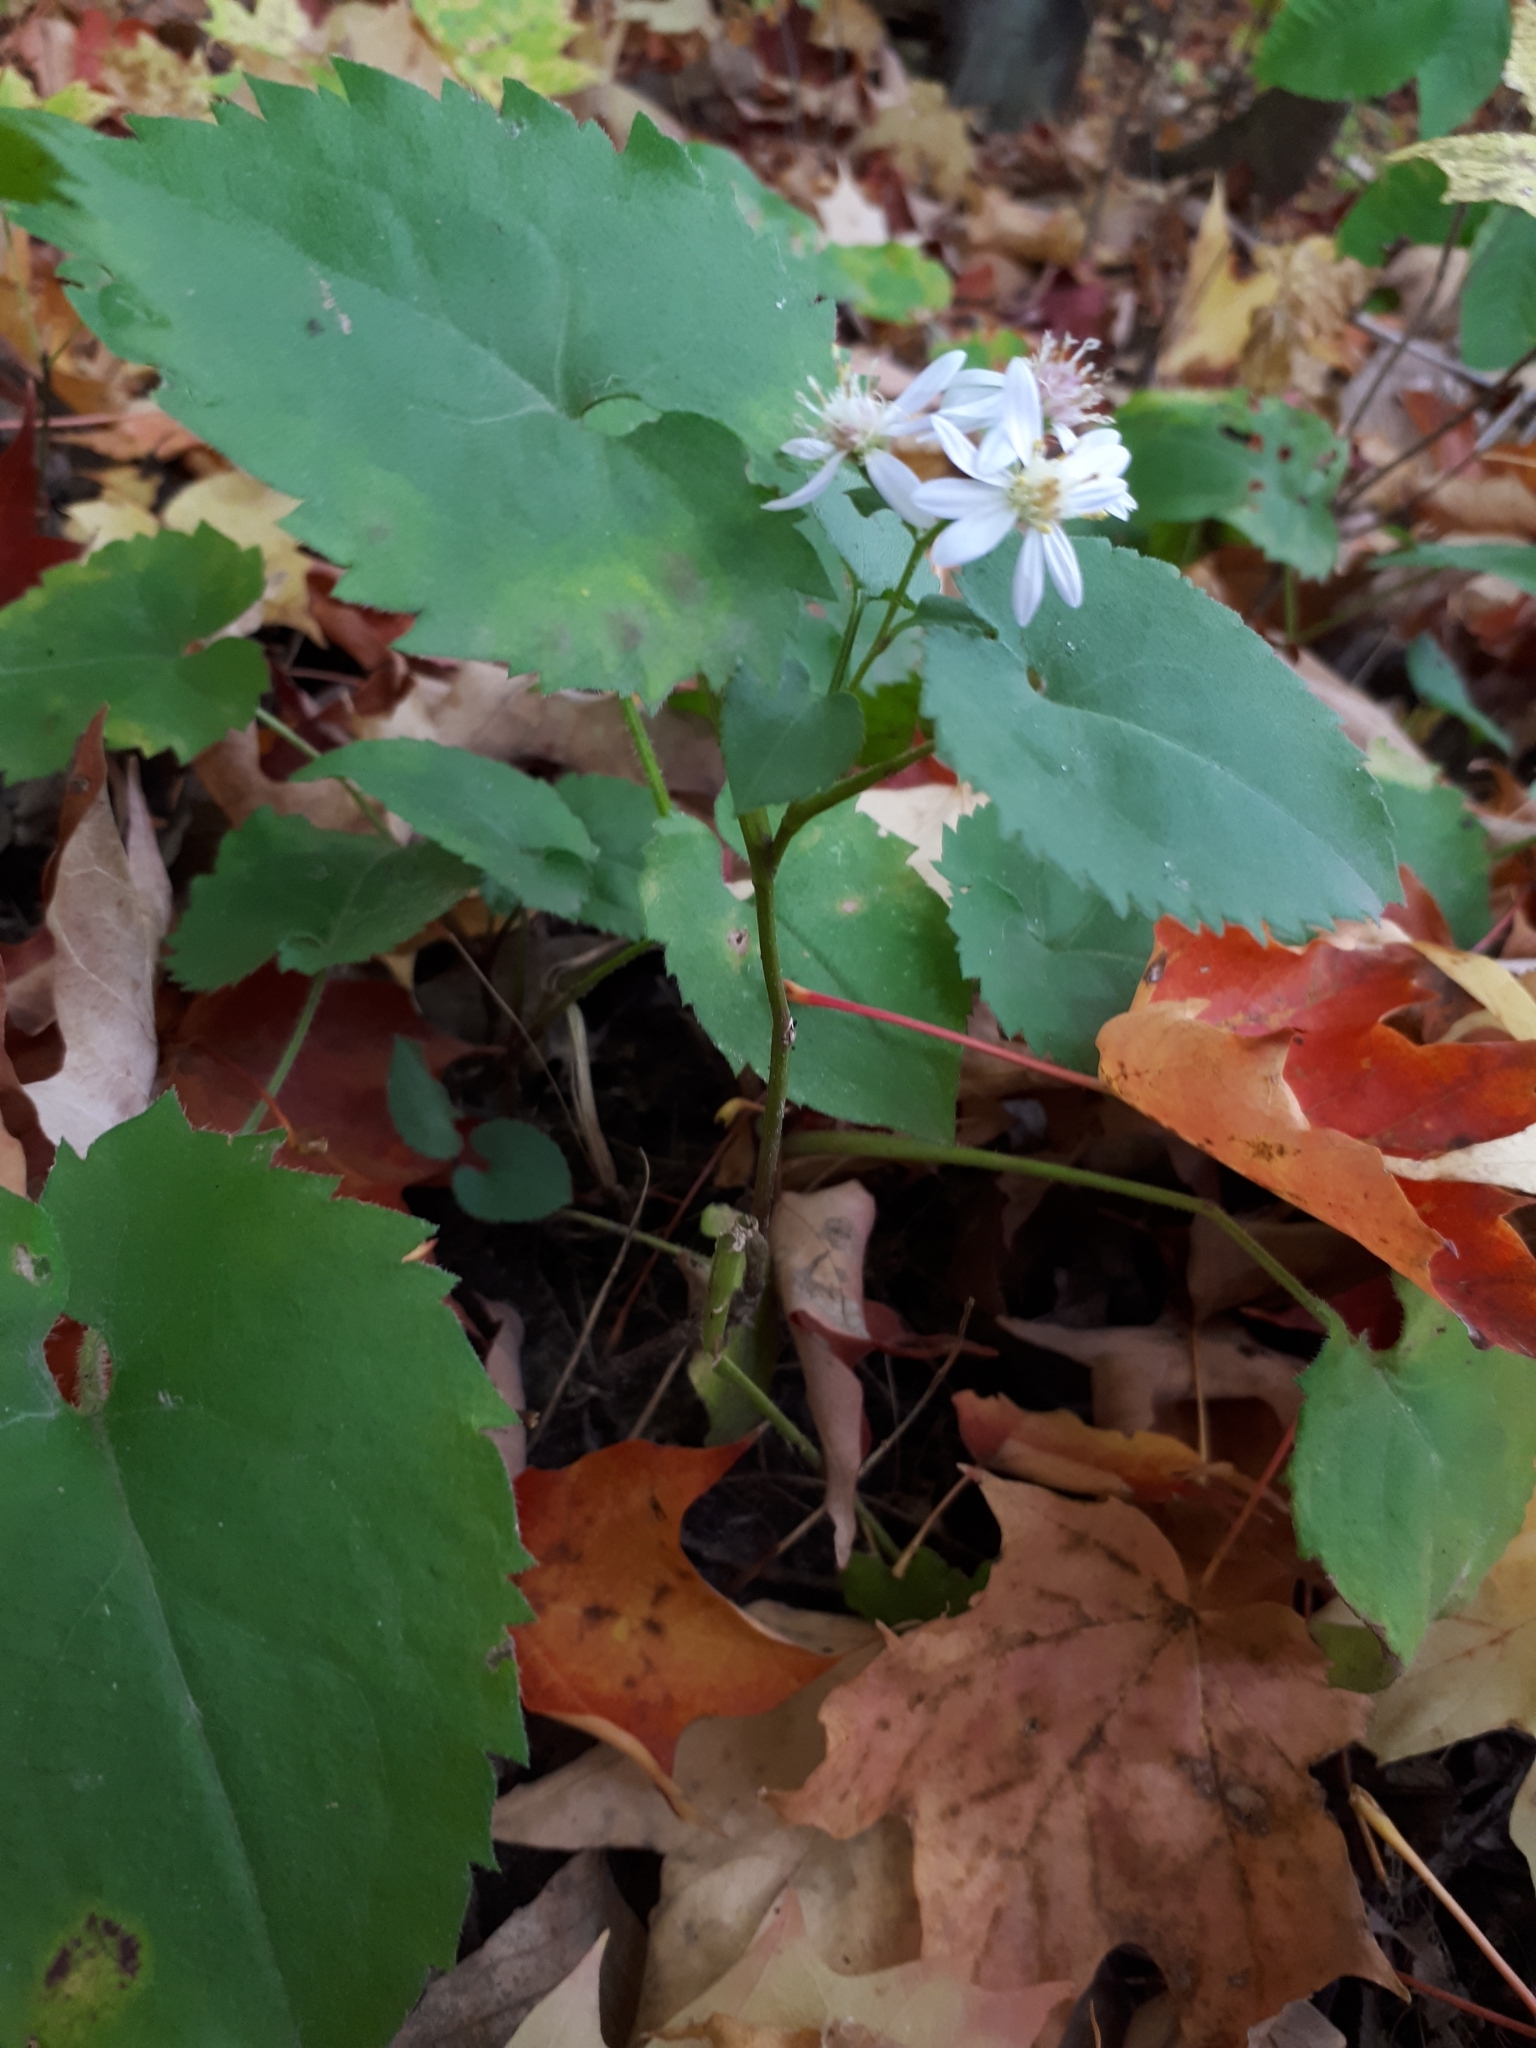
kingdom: Plantae
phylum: Tracheophyta
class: Magnoliopsida
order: Asterales
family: Asteraceae
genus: Eurybia
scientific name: Eurybia macrophylla
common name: Big-leaved aster
